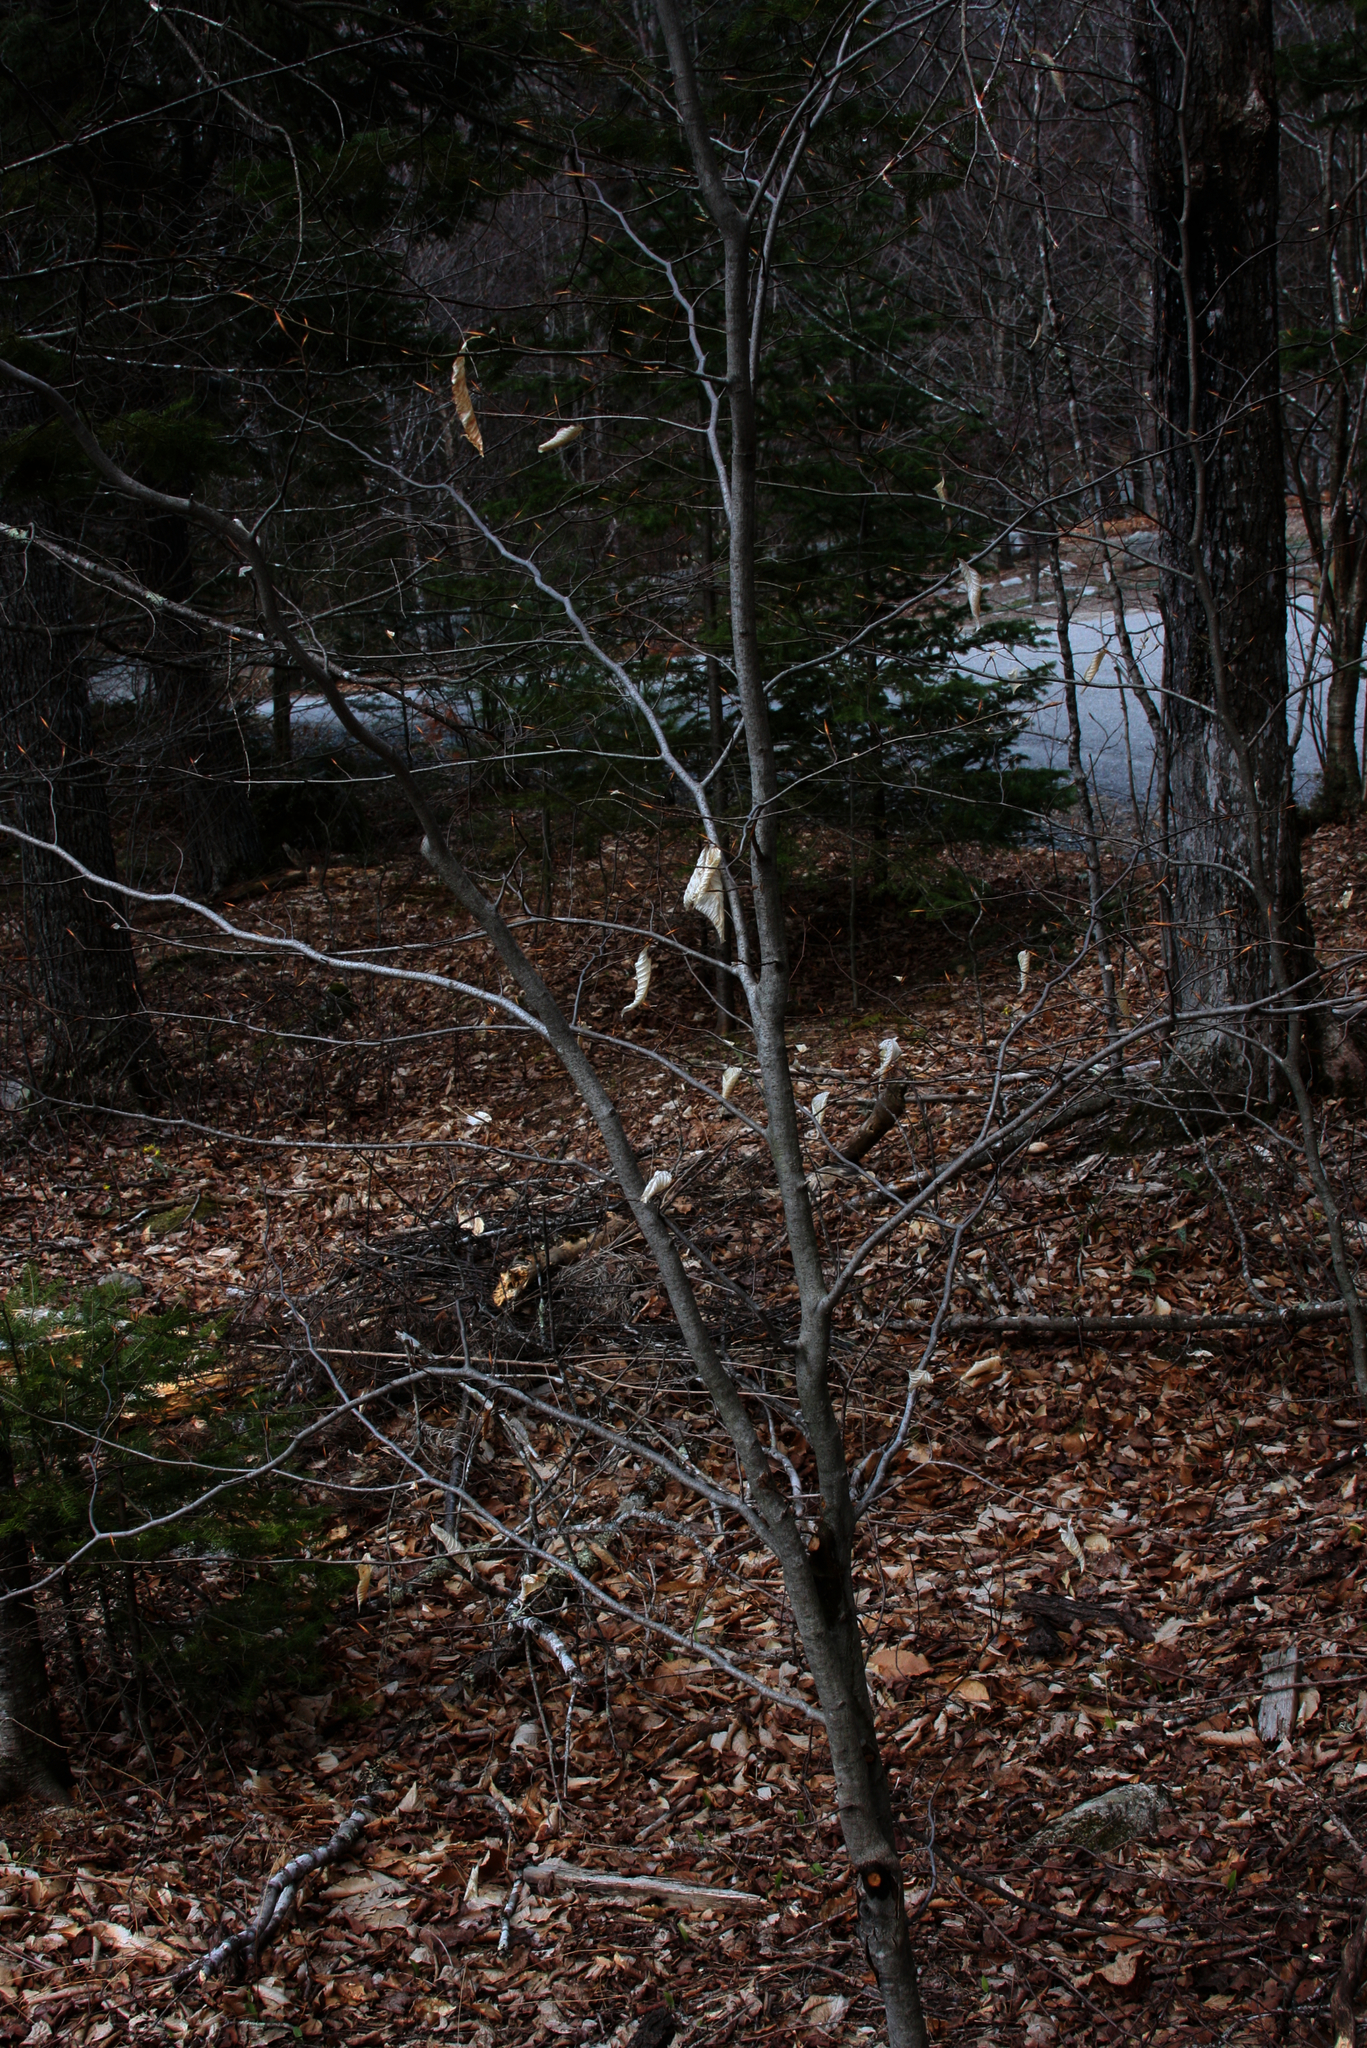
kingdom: Plantae
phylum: Tracheophyta
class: Magnoliopsida
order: Fagales
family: Fagaceae
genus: Fagus
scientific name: Fagus grandifolia
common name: American beech
